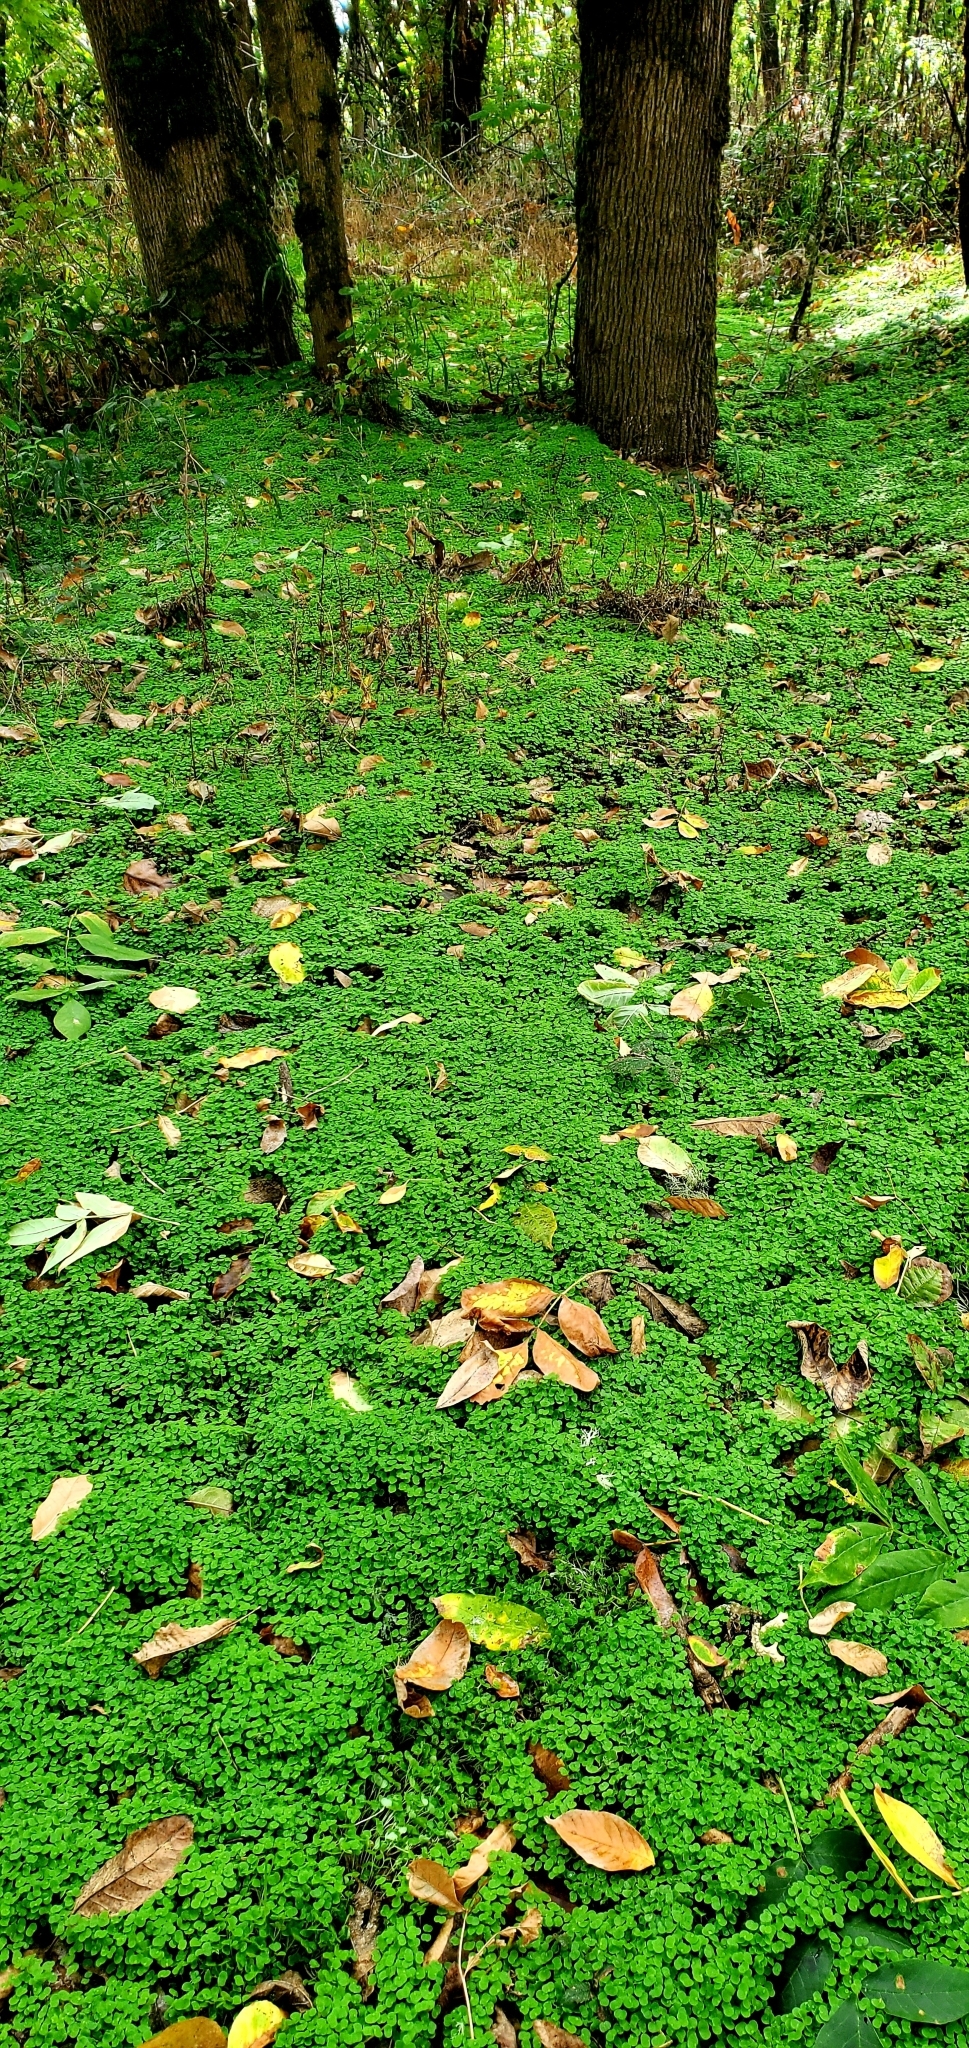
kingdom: Plantae
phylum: Tracheophyta
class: Magnoliopsida
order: Geraniales
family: Geraniaceae
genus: Geranium
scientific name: Geranium lucidum
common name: Shining crane's-bill
